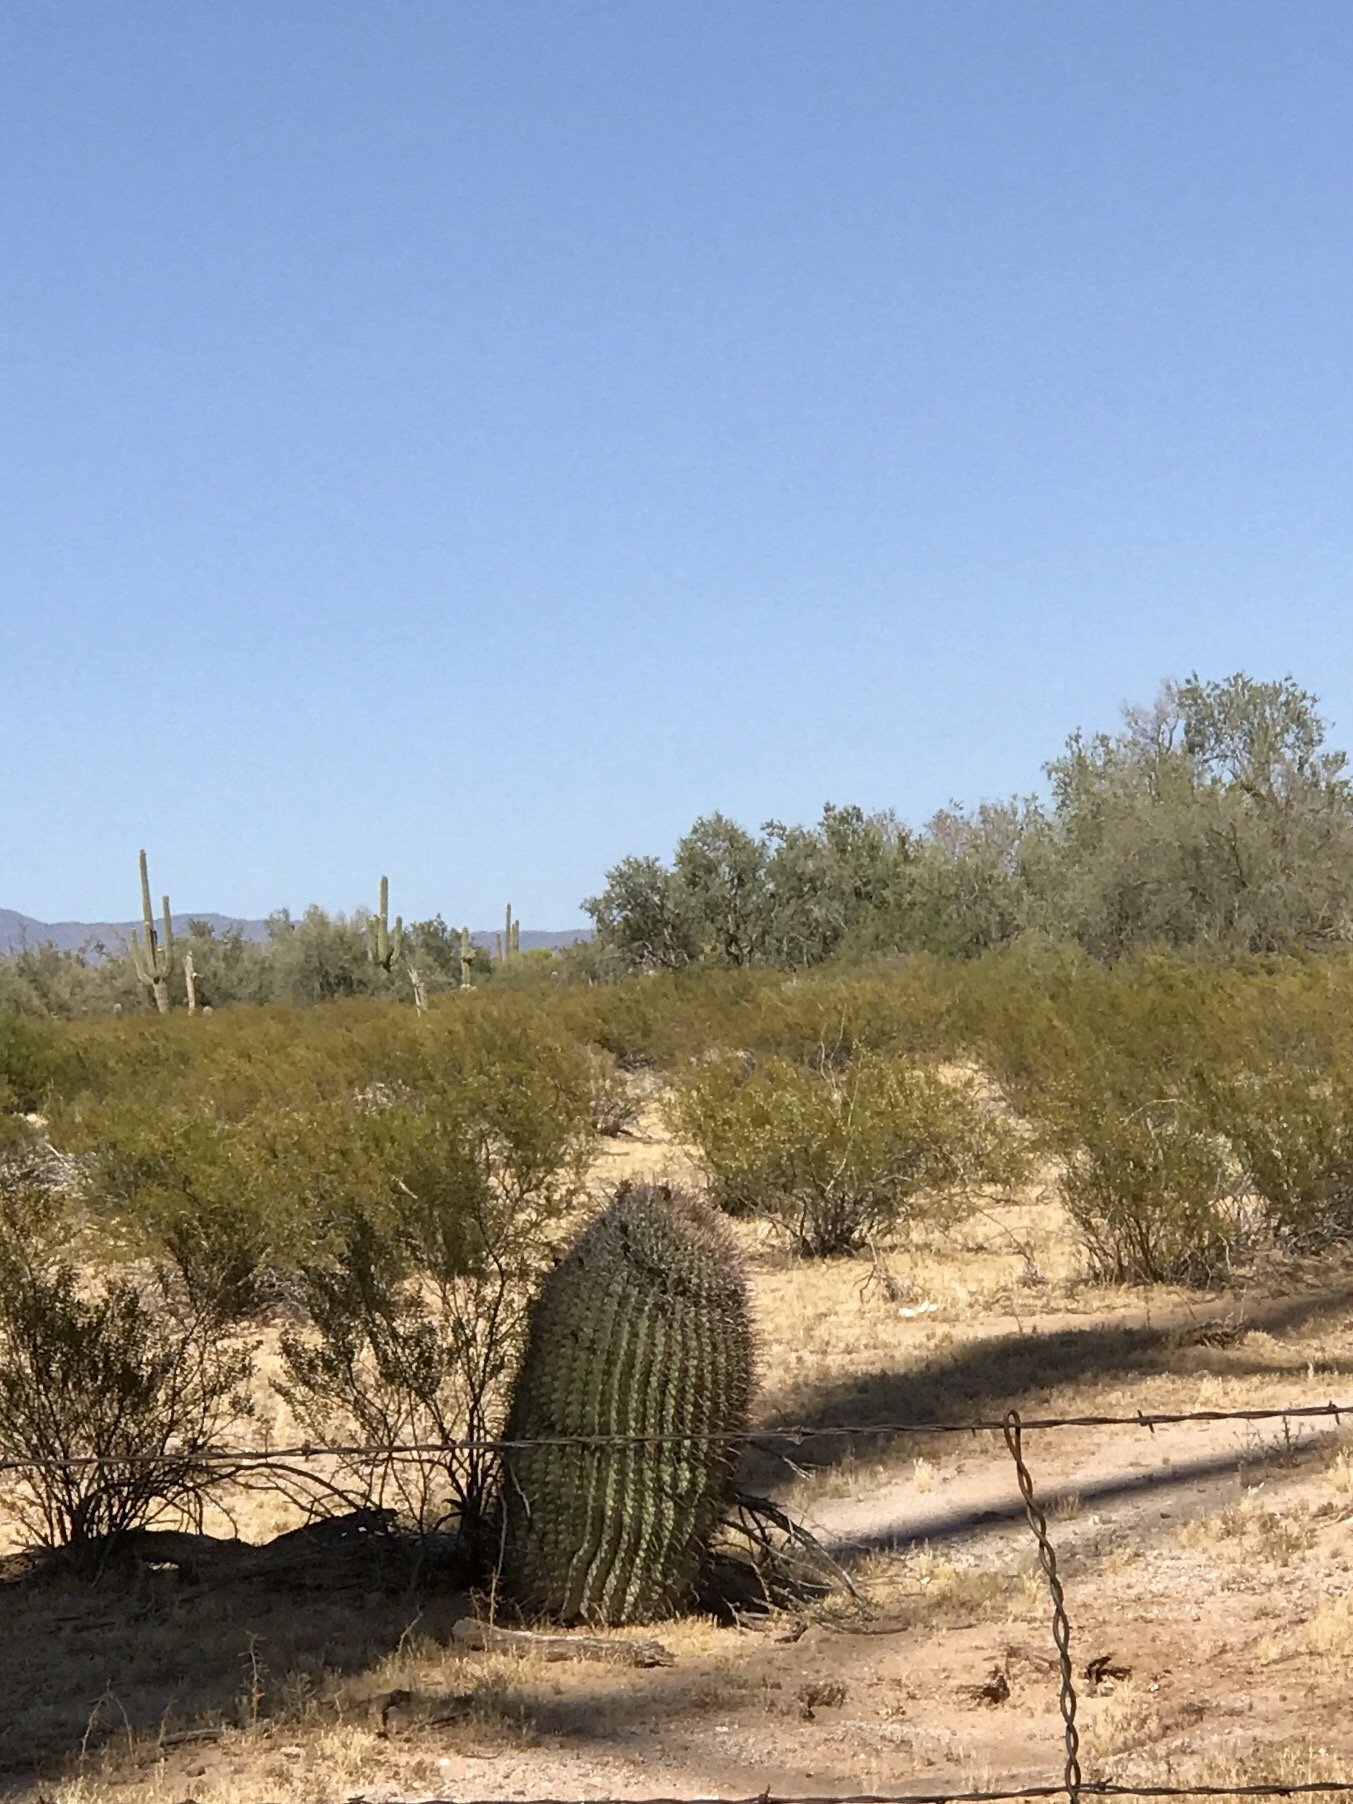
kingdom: Plantae
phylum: Tracheophyta
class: Magnoliopsida
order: Caryophyllales
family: Cactaceae
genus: Ferocactus
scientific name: Ferocactus wislizeni
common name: Candy barrel cactus
